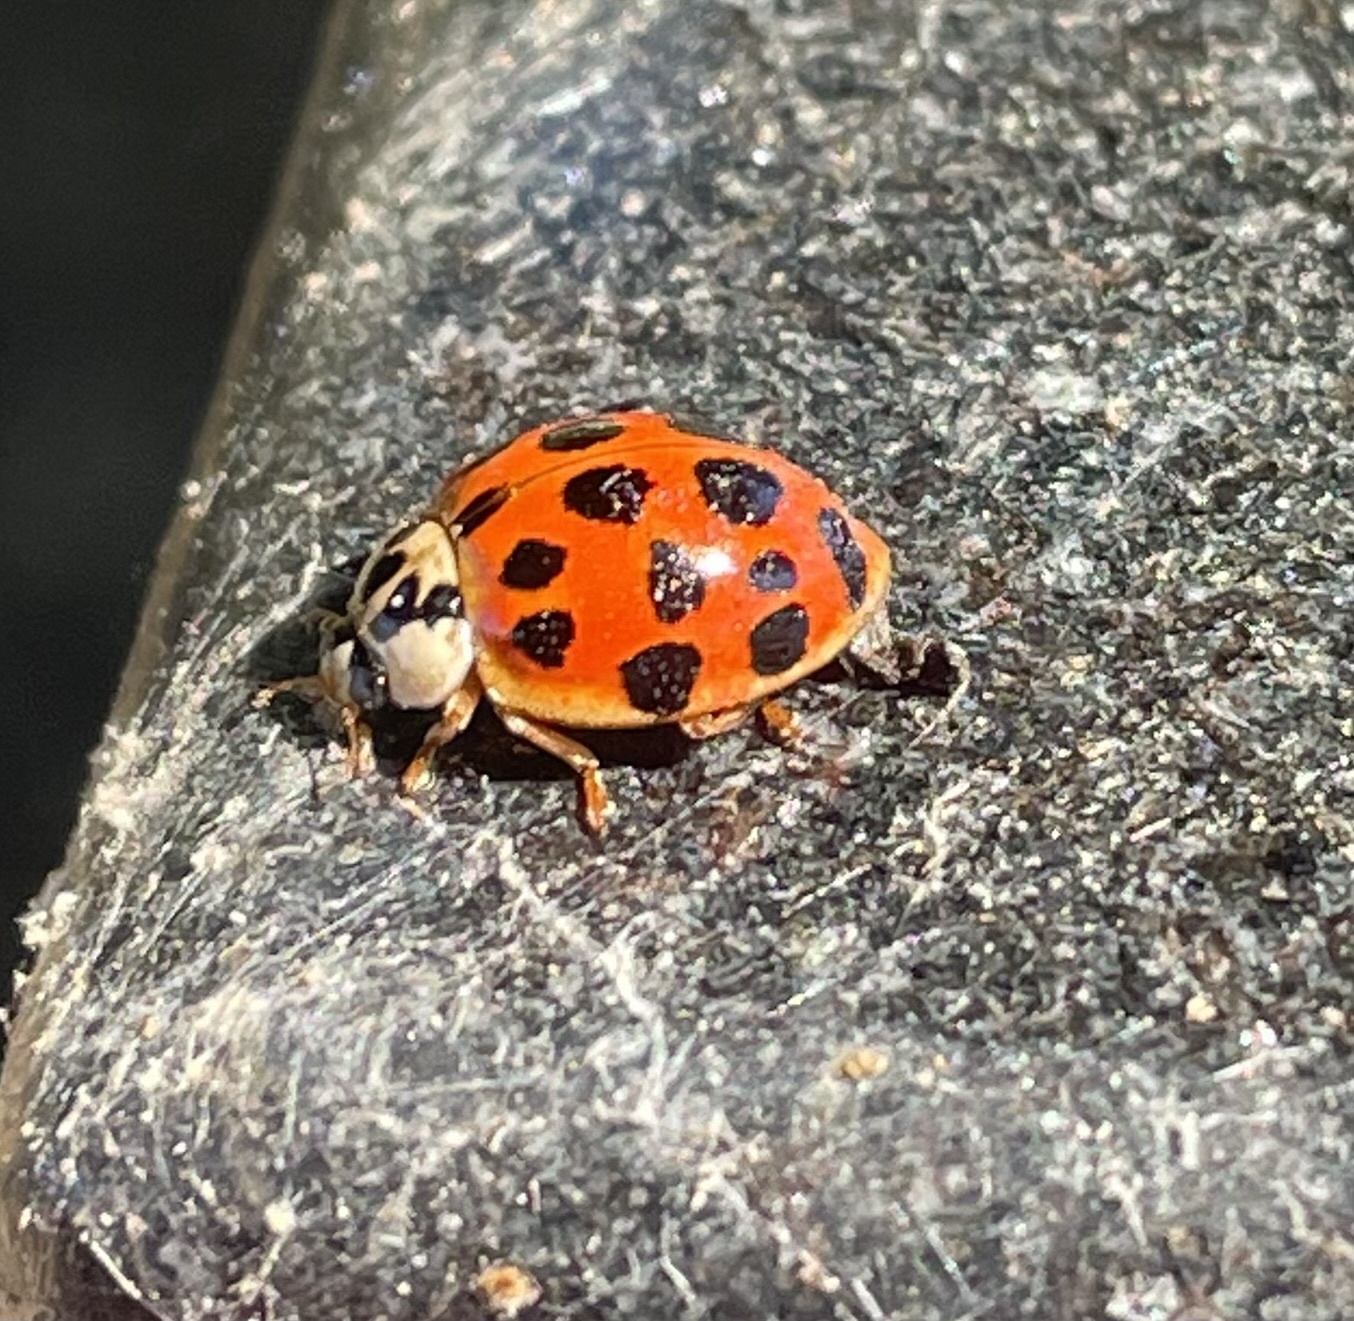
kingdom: Animalia
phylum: Arthropoda
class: Insecta
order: Coleoptera
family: Coccinellidae
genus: Harmonia
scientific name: Harmonia axyridis
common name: Harlequin ladybird
